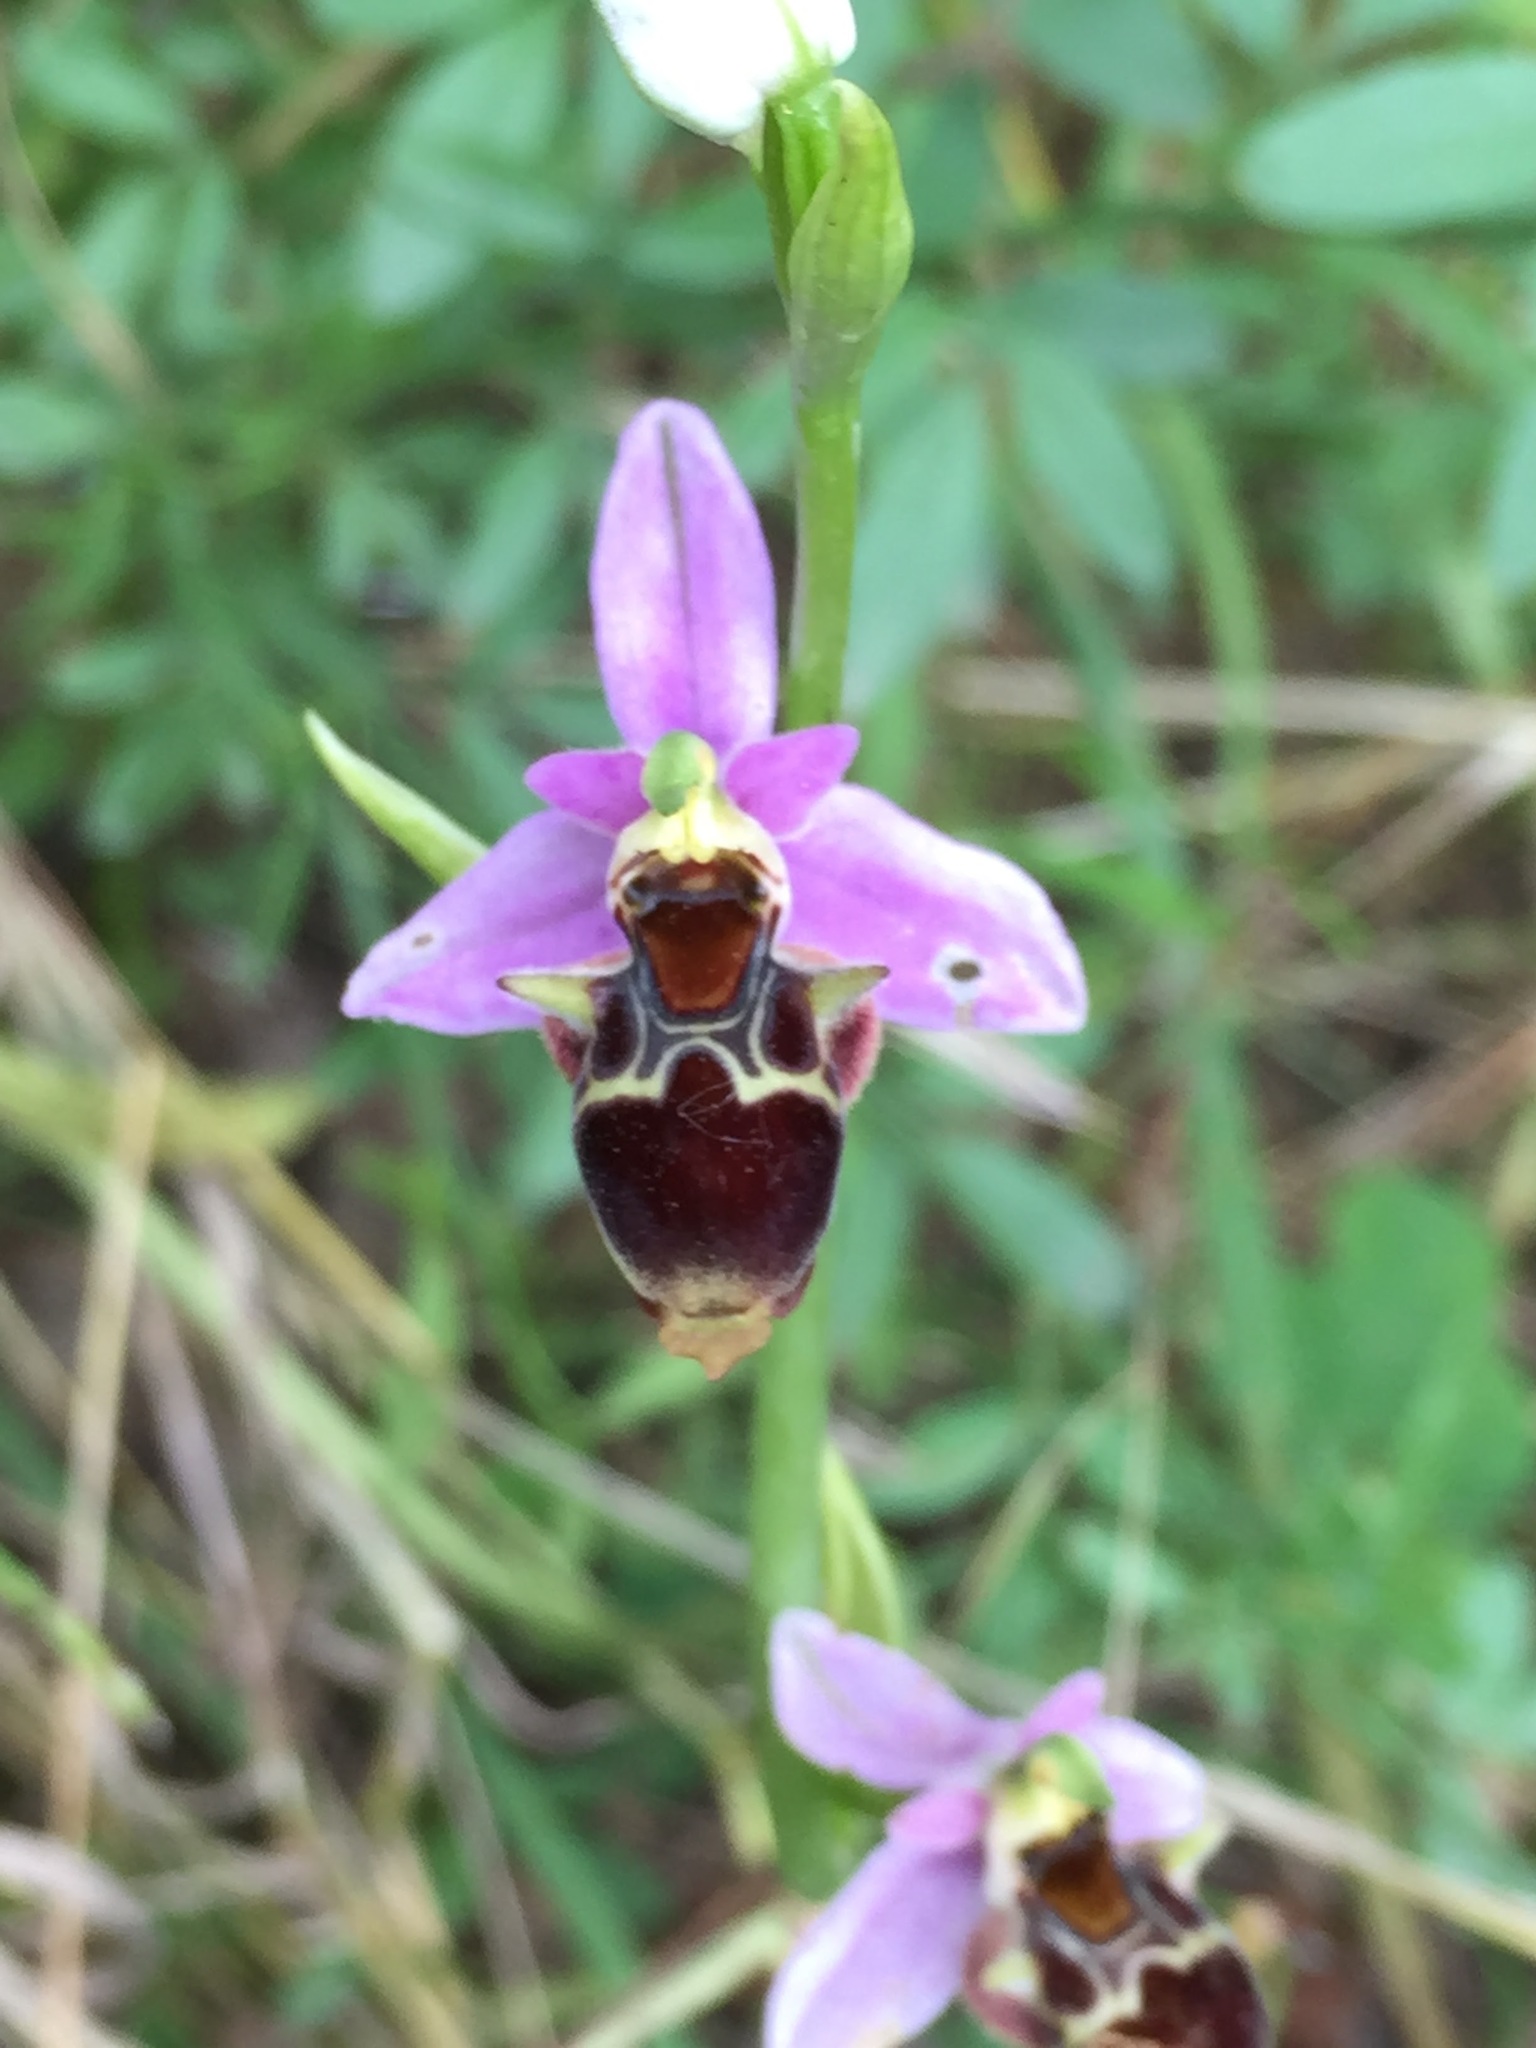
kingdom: Plantae
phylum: Tracheophyta
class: Liliopsida
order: Asparagales
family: Orchidaceae
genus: Ophrys
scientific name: Ophrys
